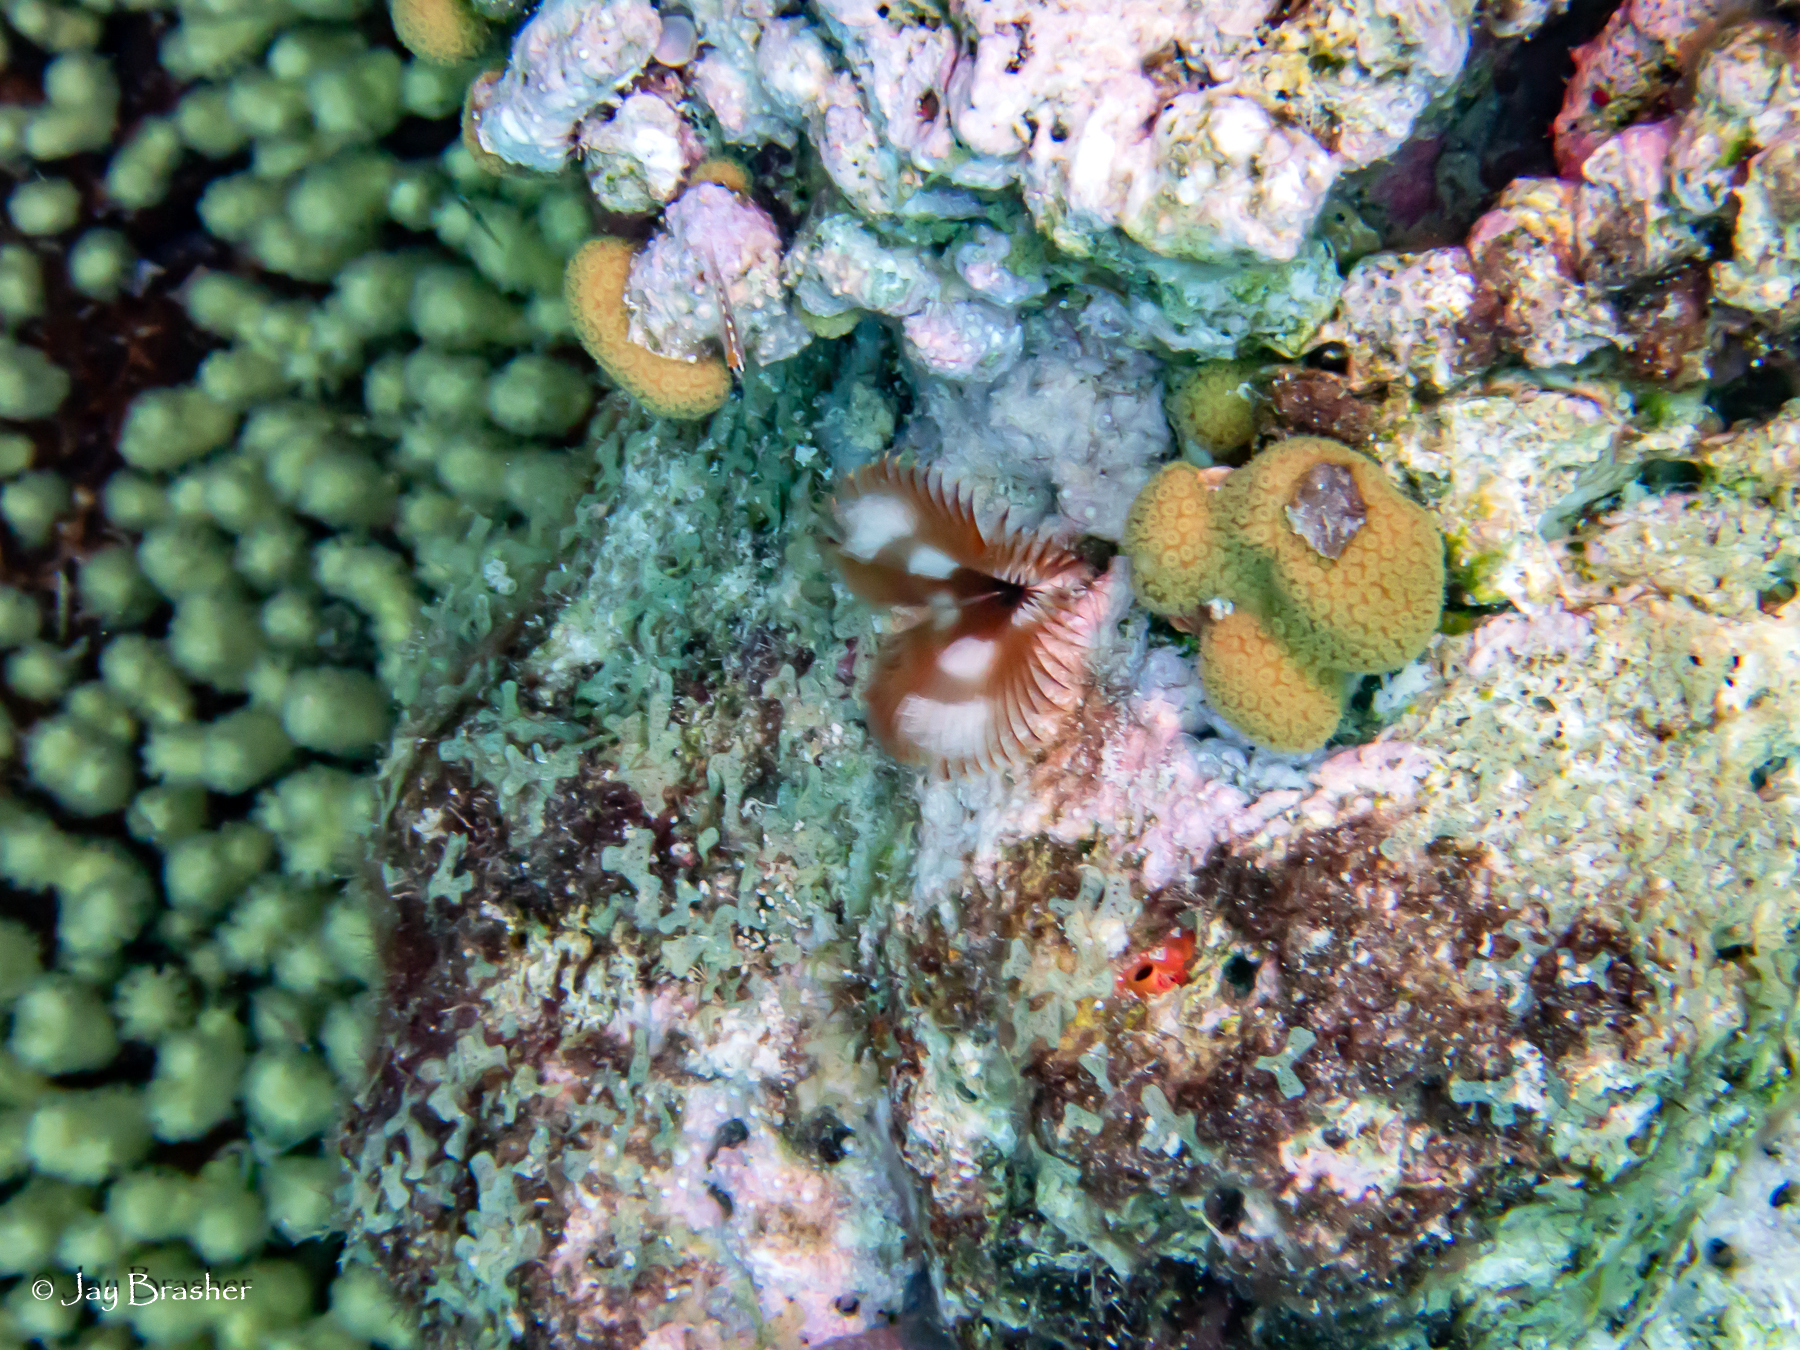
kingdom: Animalia
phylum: Annelida
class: Polychaeta
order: Sabellida
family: Sabellidae
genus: Anamobaea
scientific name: Anamobaea orstedii
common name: Split-crown feather duster
